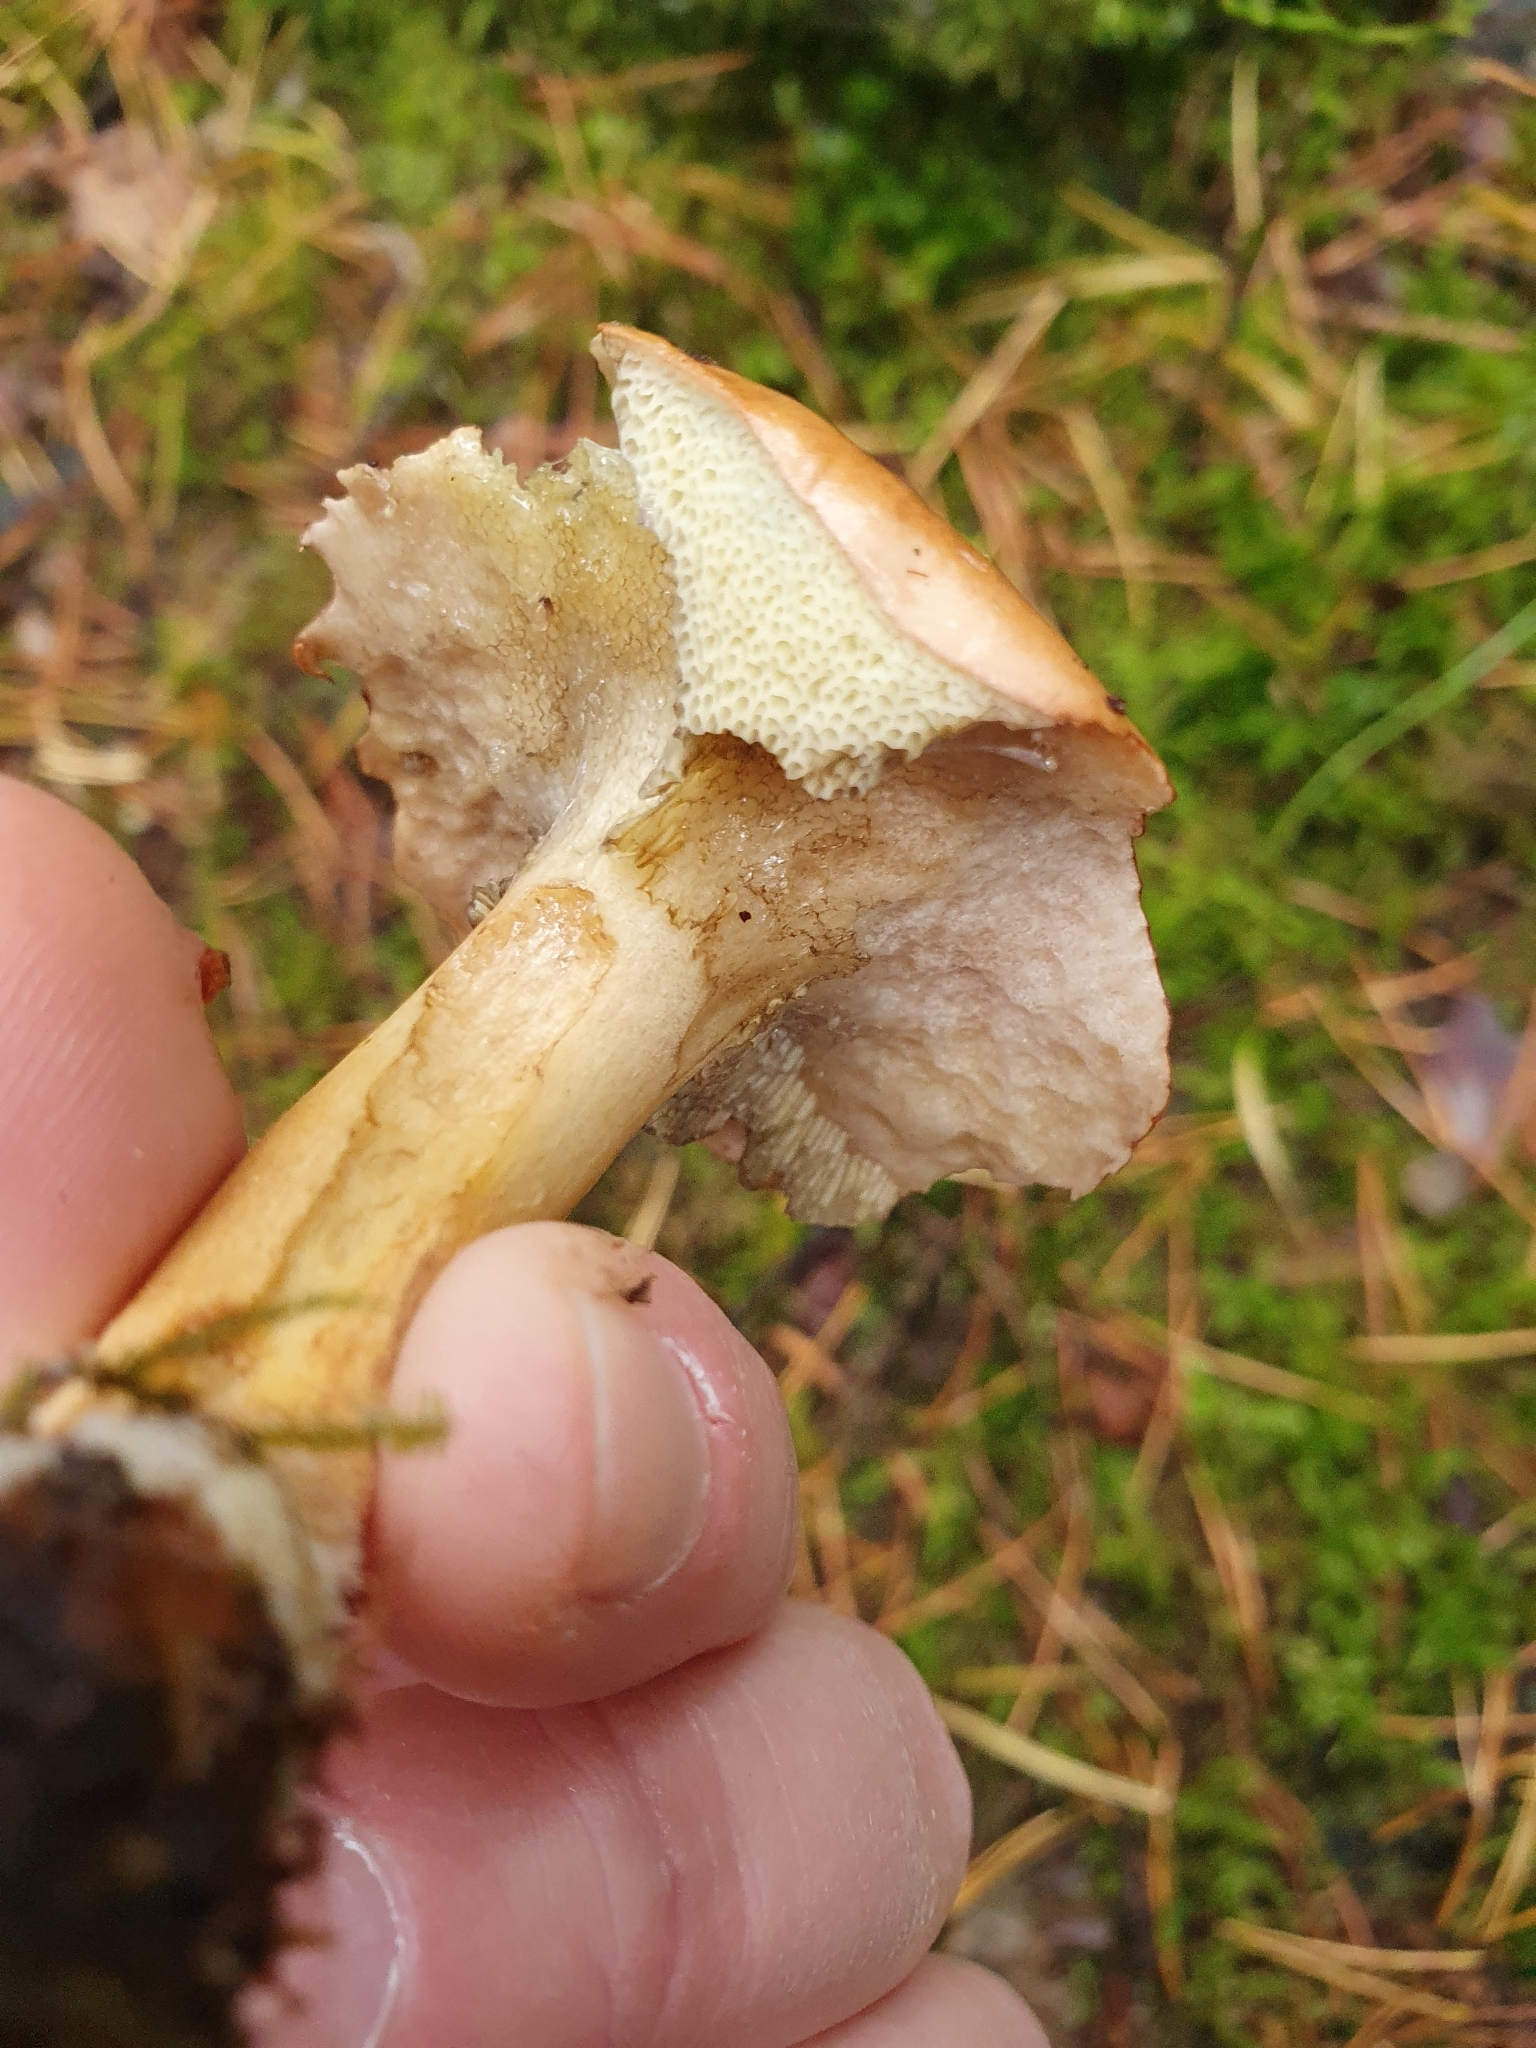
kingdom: Fungi
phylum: Basidiomycota
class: Agaricomycetes
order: Boletales
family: Suillaceae
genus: Suillus
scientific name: Suillus variegatus
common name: Velvet bolete
